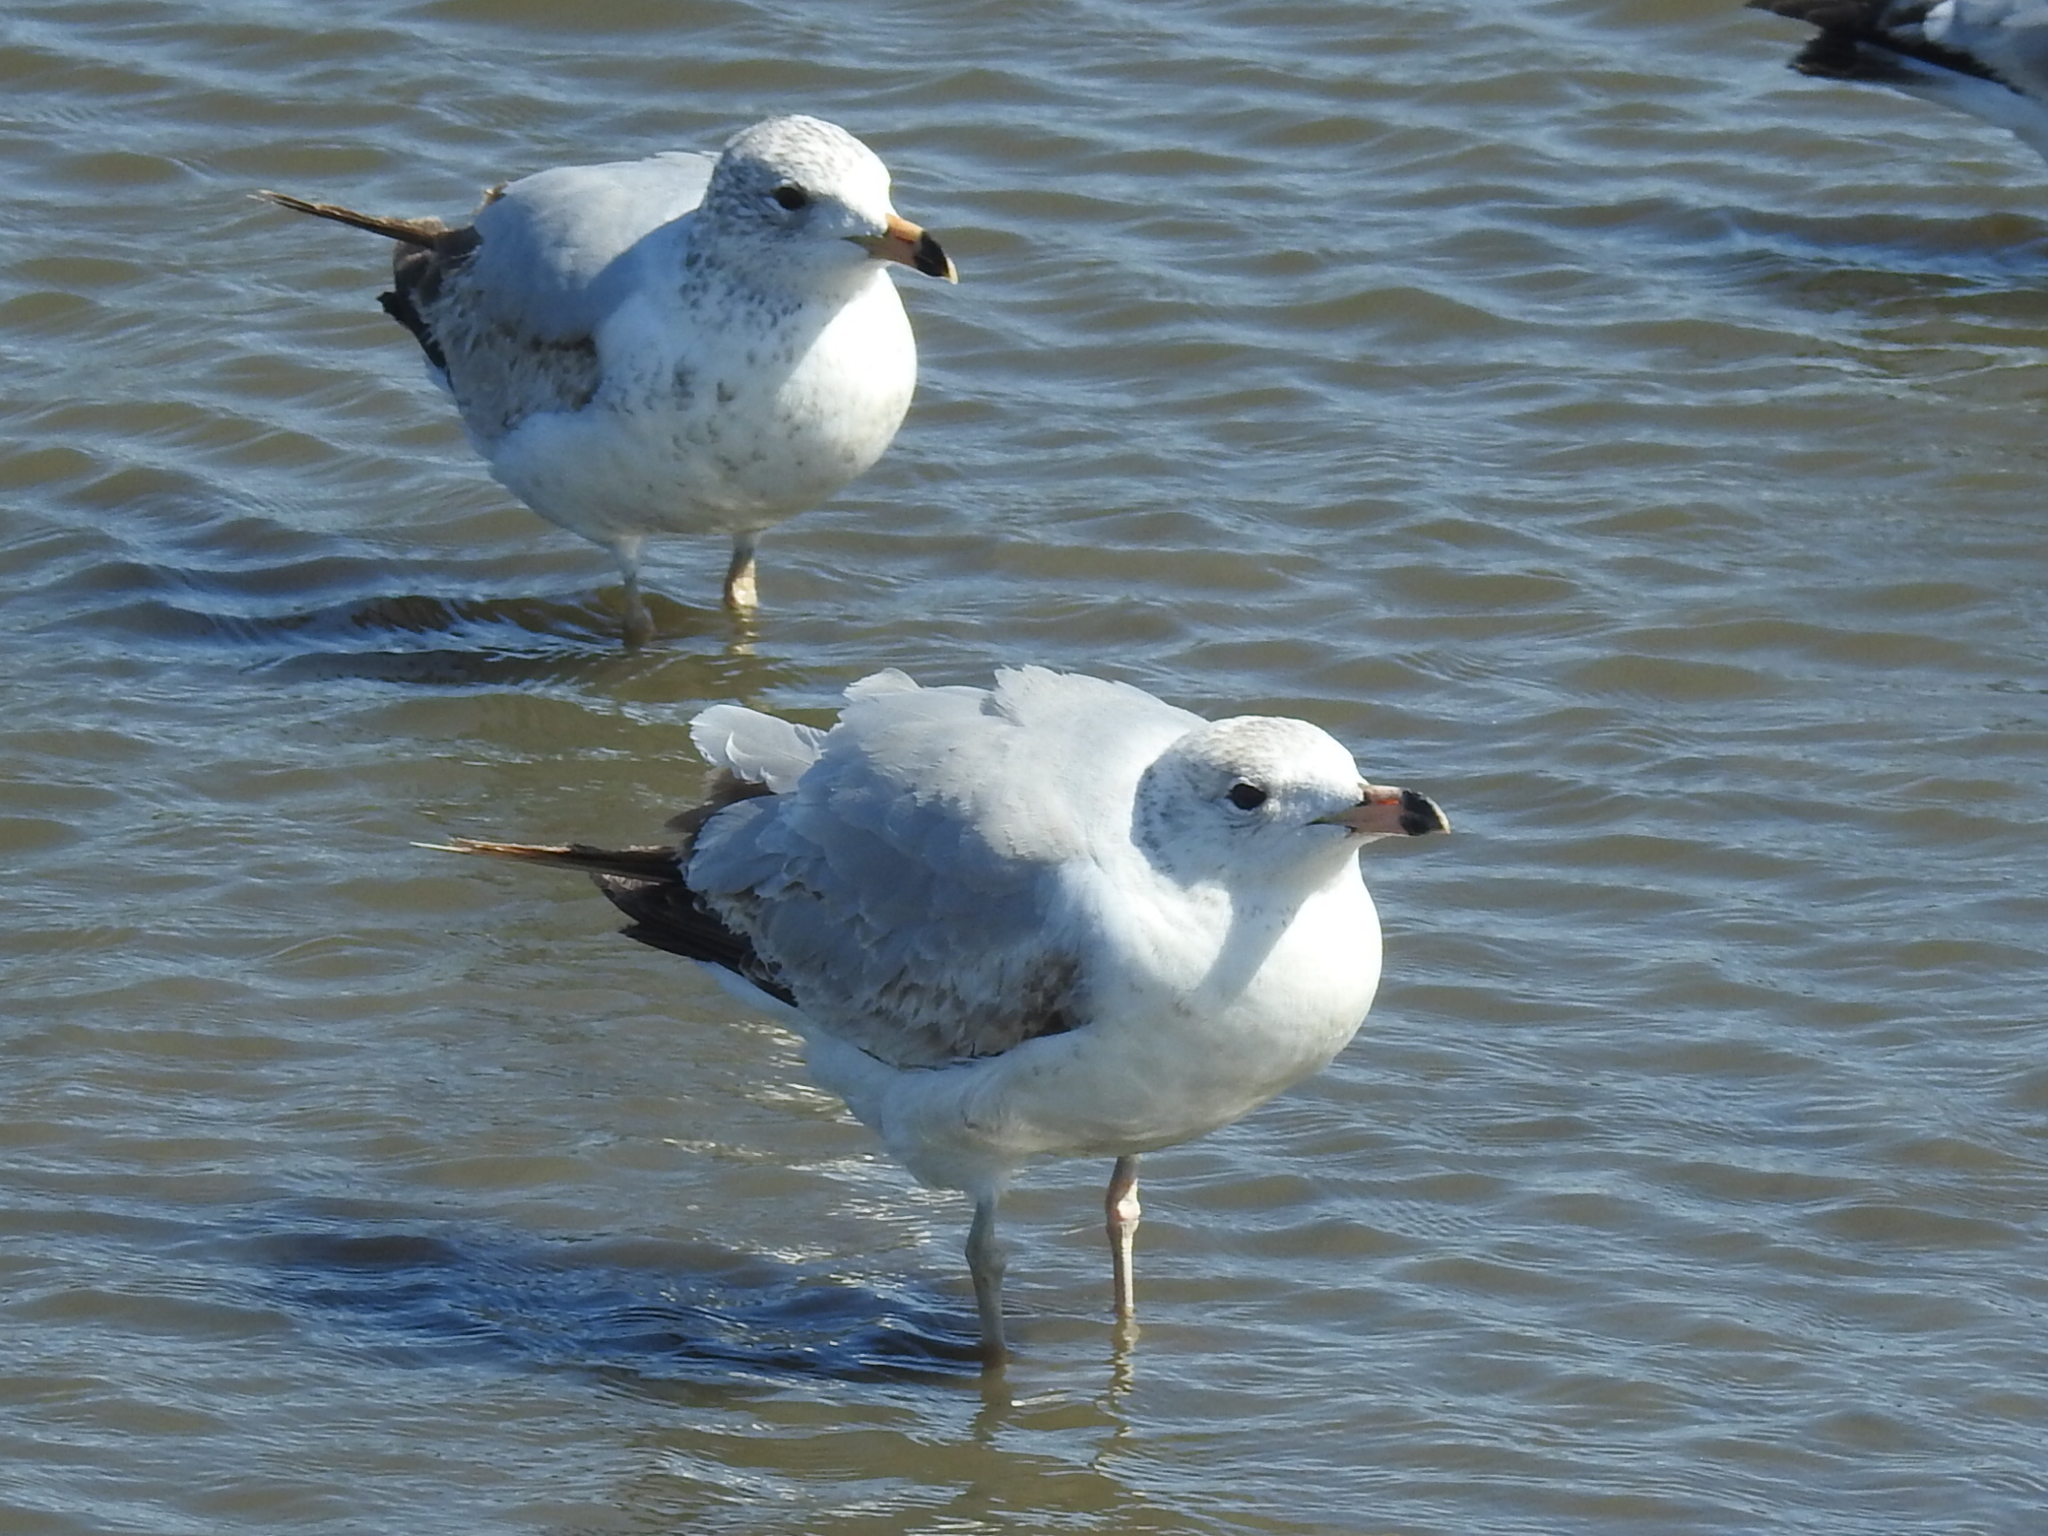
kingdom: Animalia
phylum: Chordata
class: Aves
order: Charadriiformes
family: Laridae
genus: Larus
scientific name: Larus delawarensis
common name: Ring-billed gull
